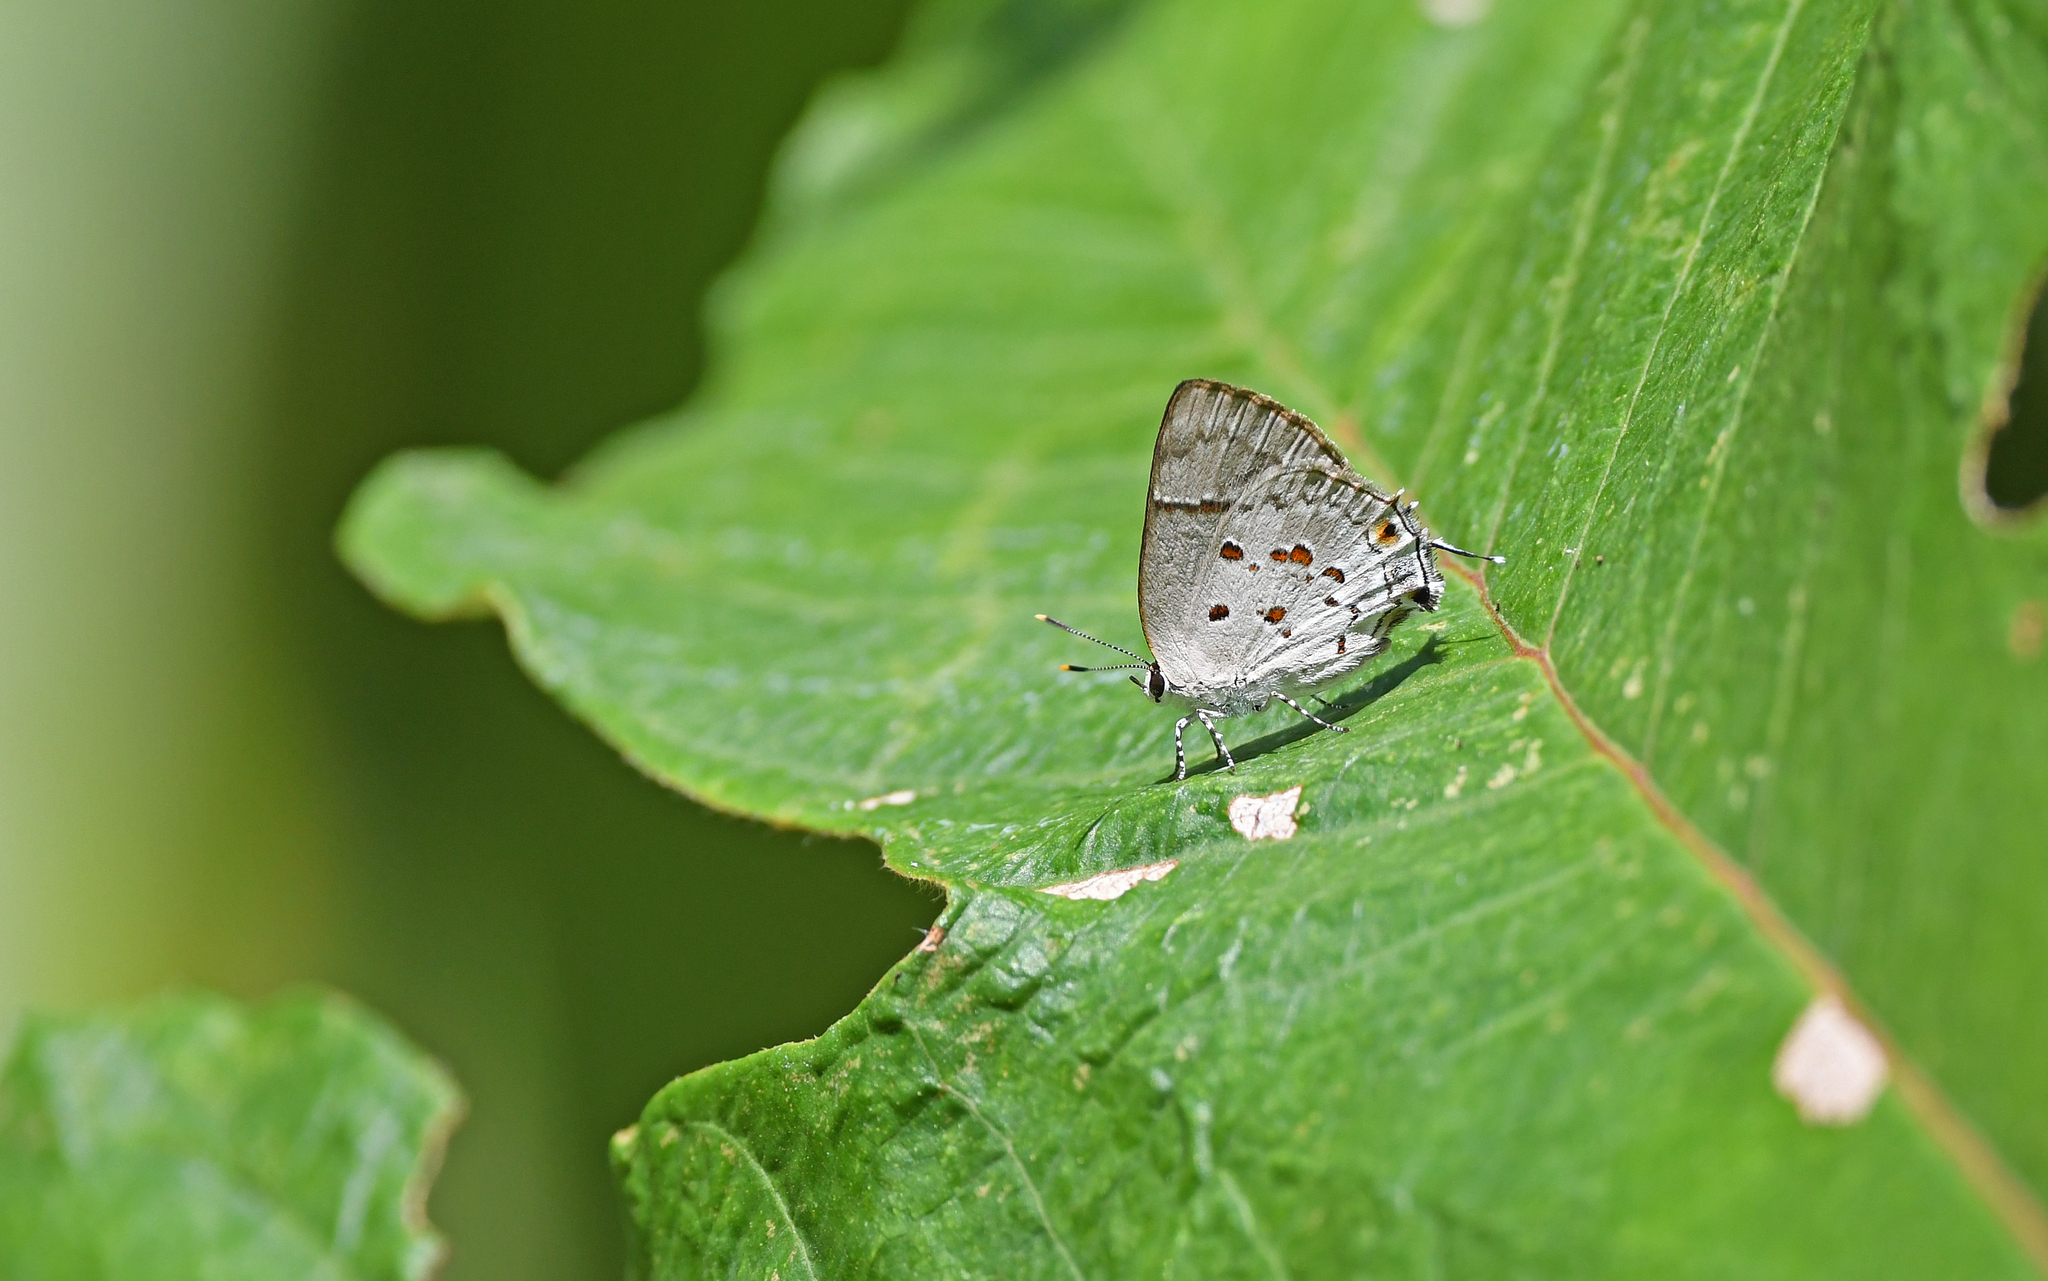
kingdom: Animalia
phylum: Arthropoda
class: Insecta
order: Lepidoptera
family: Lycaenidae
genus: Tmolus
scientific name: Tmolus echion
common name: Red-spotted hairstreak
